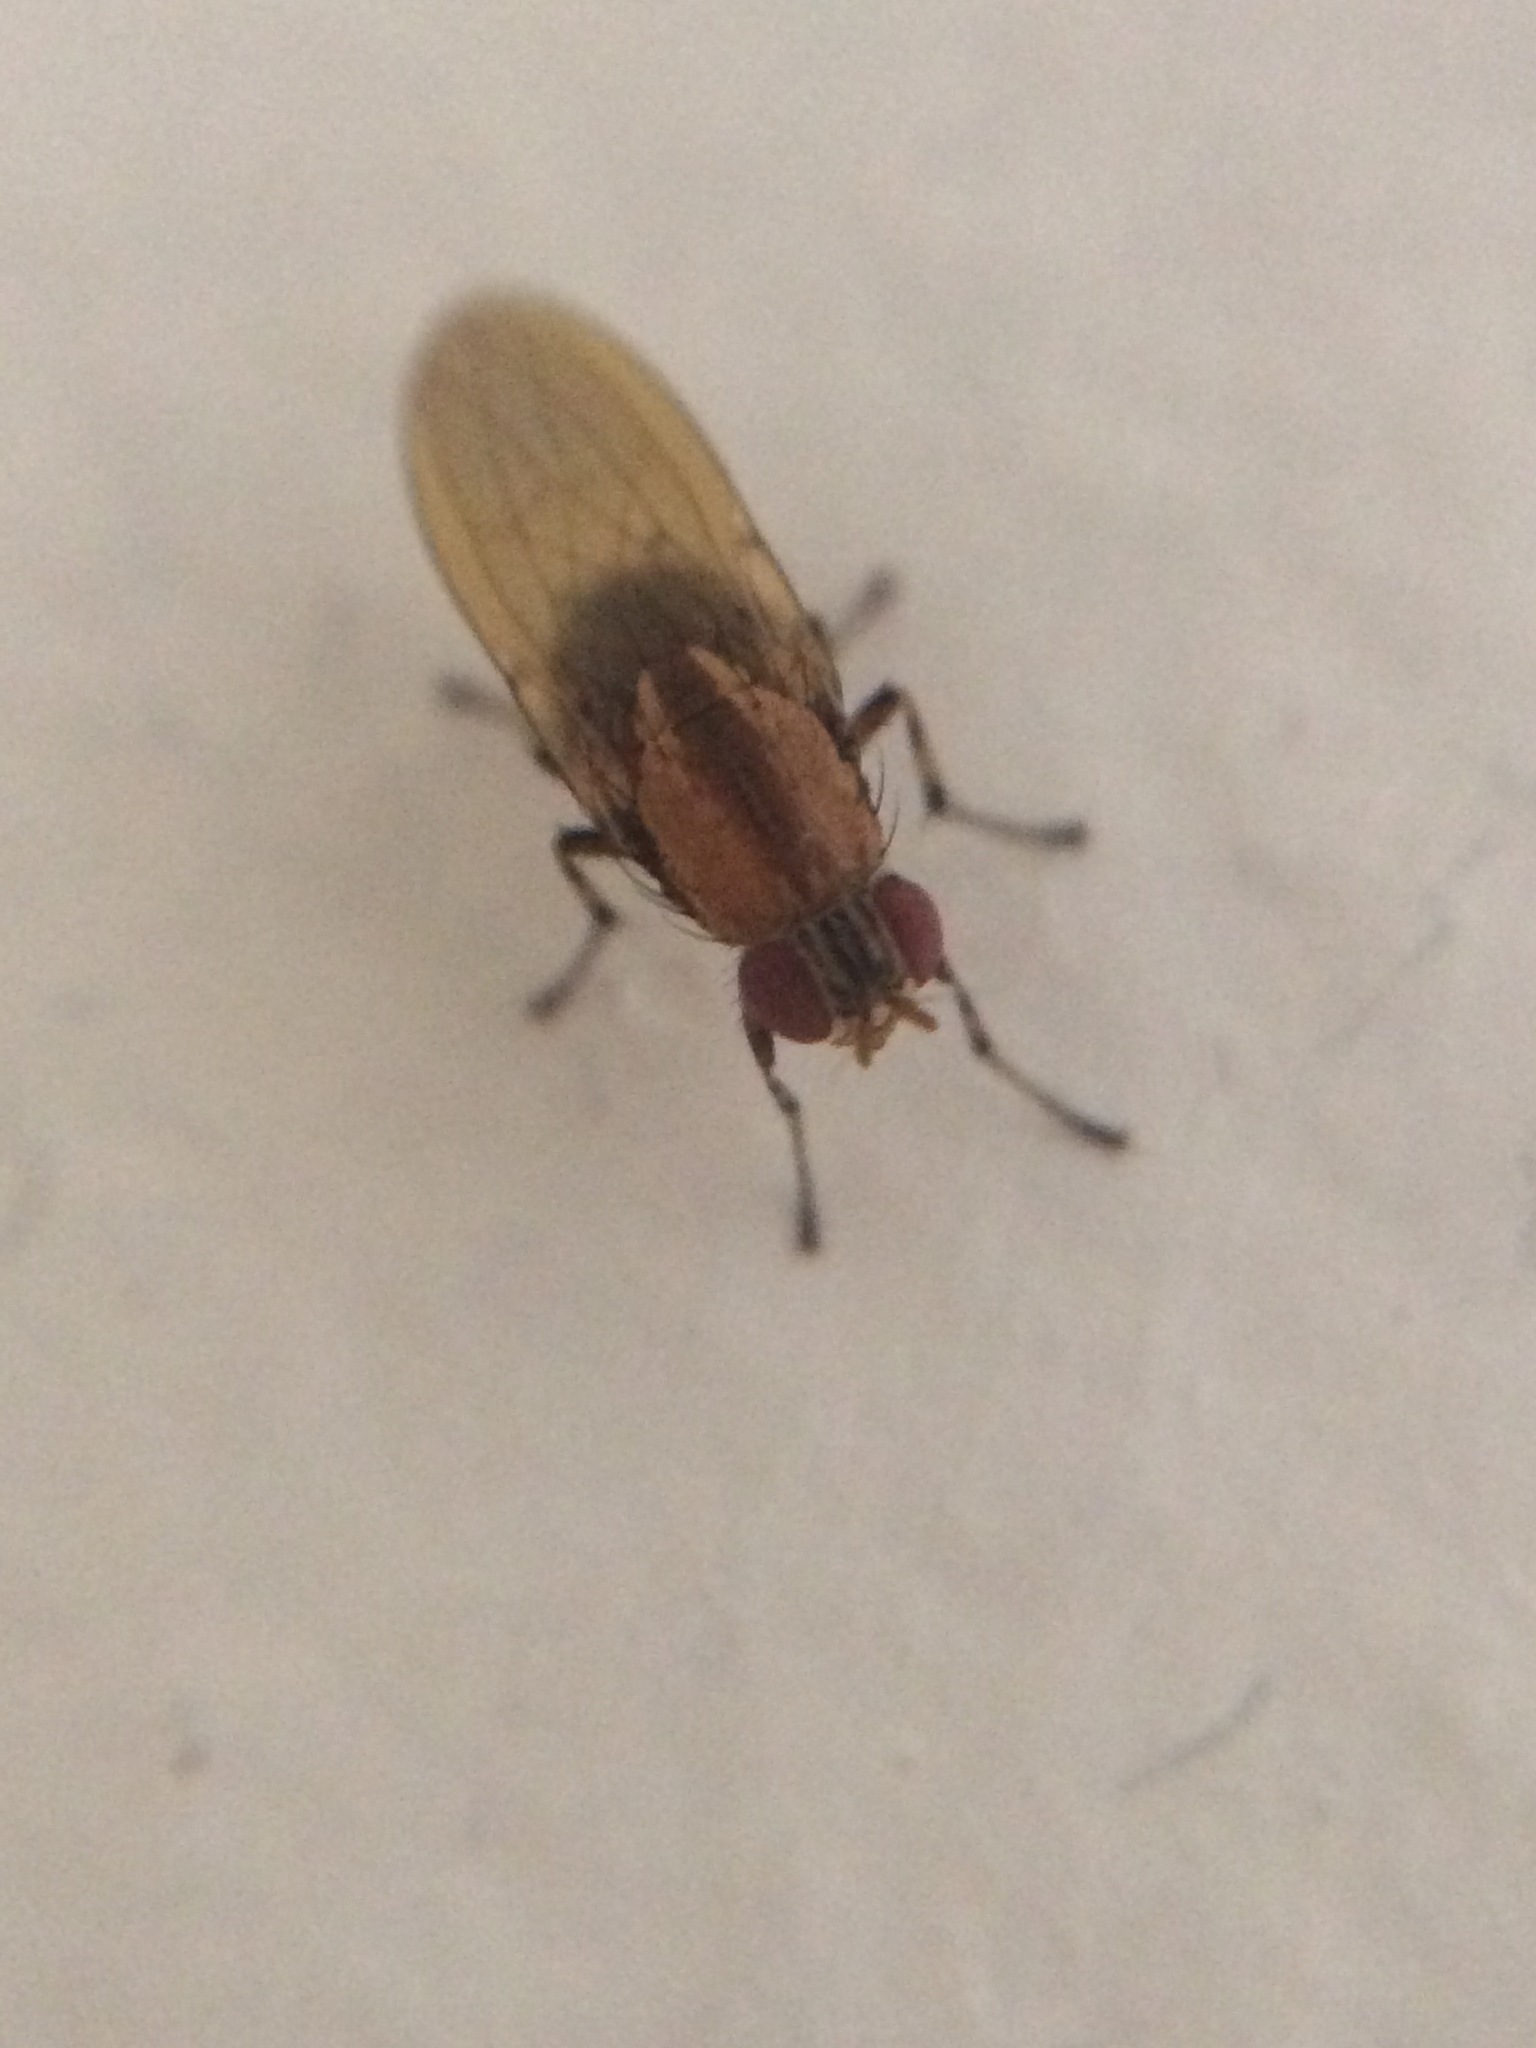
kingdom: Animalia
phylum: Arthropoda
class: Insecta
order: Diptera
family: Lauxaniidae
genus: Sapromyza
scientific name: Sapromyza neozelandica
